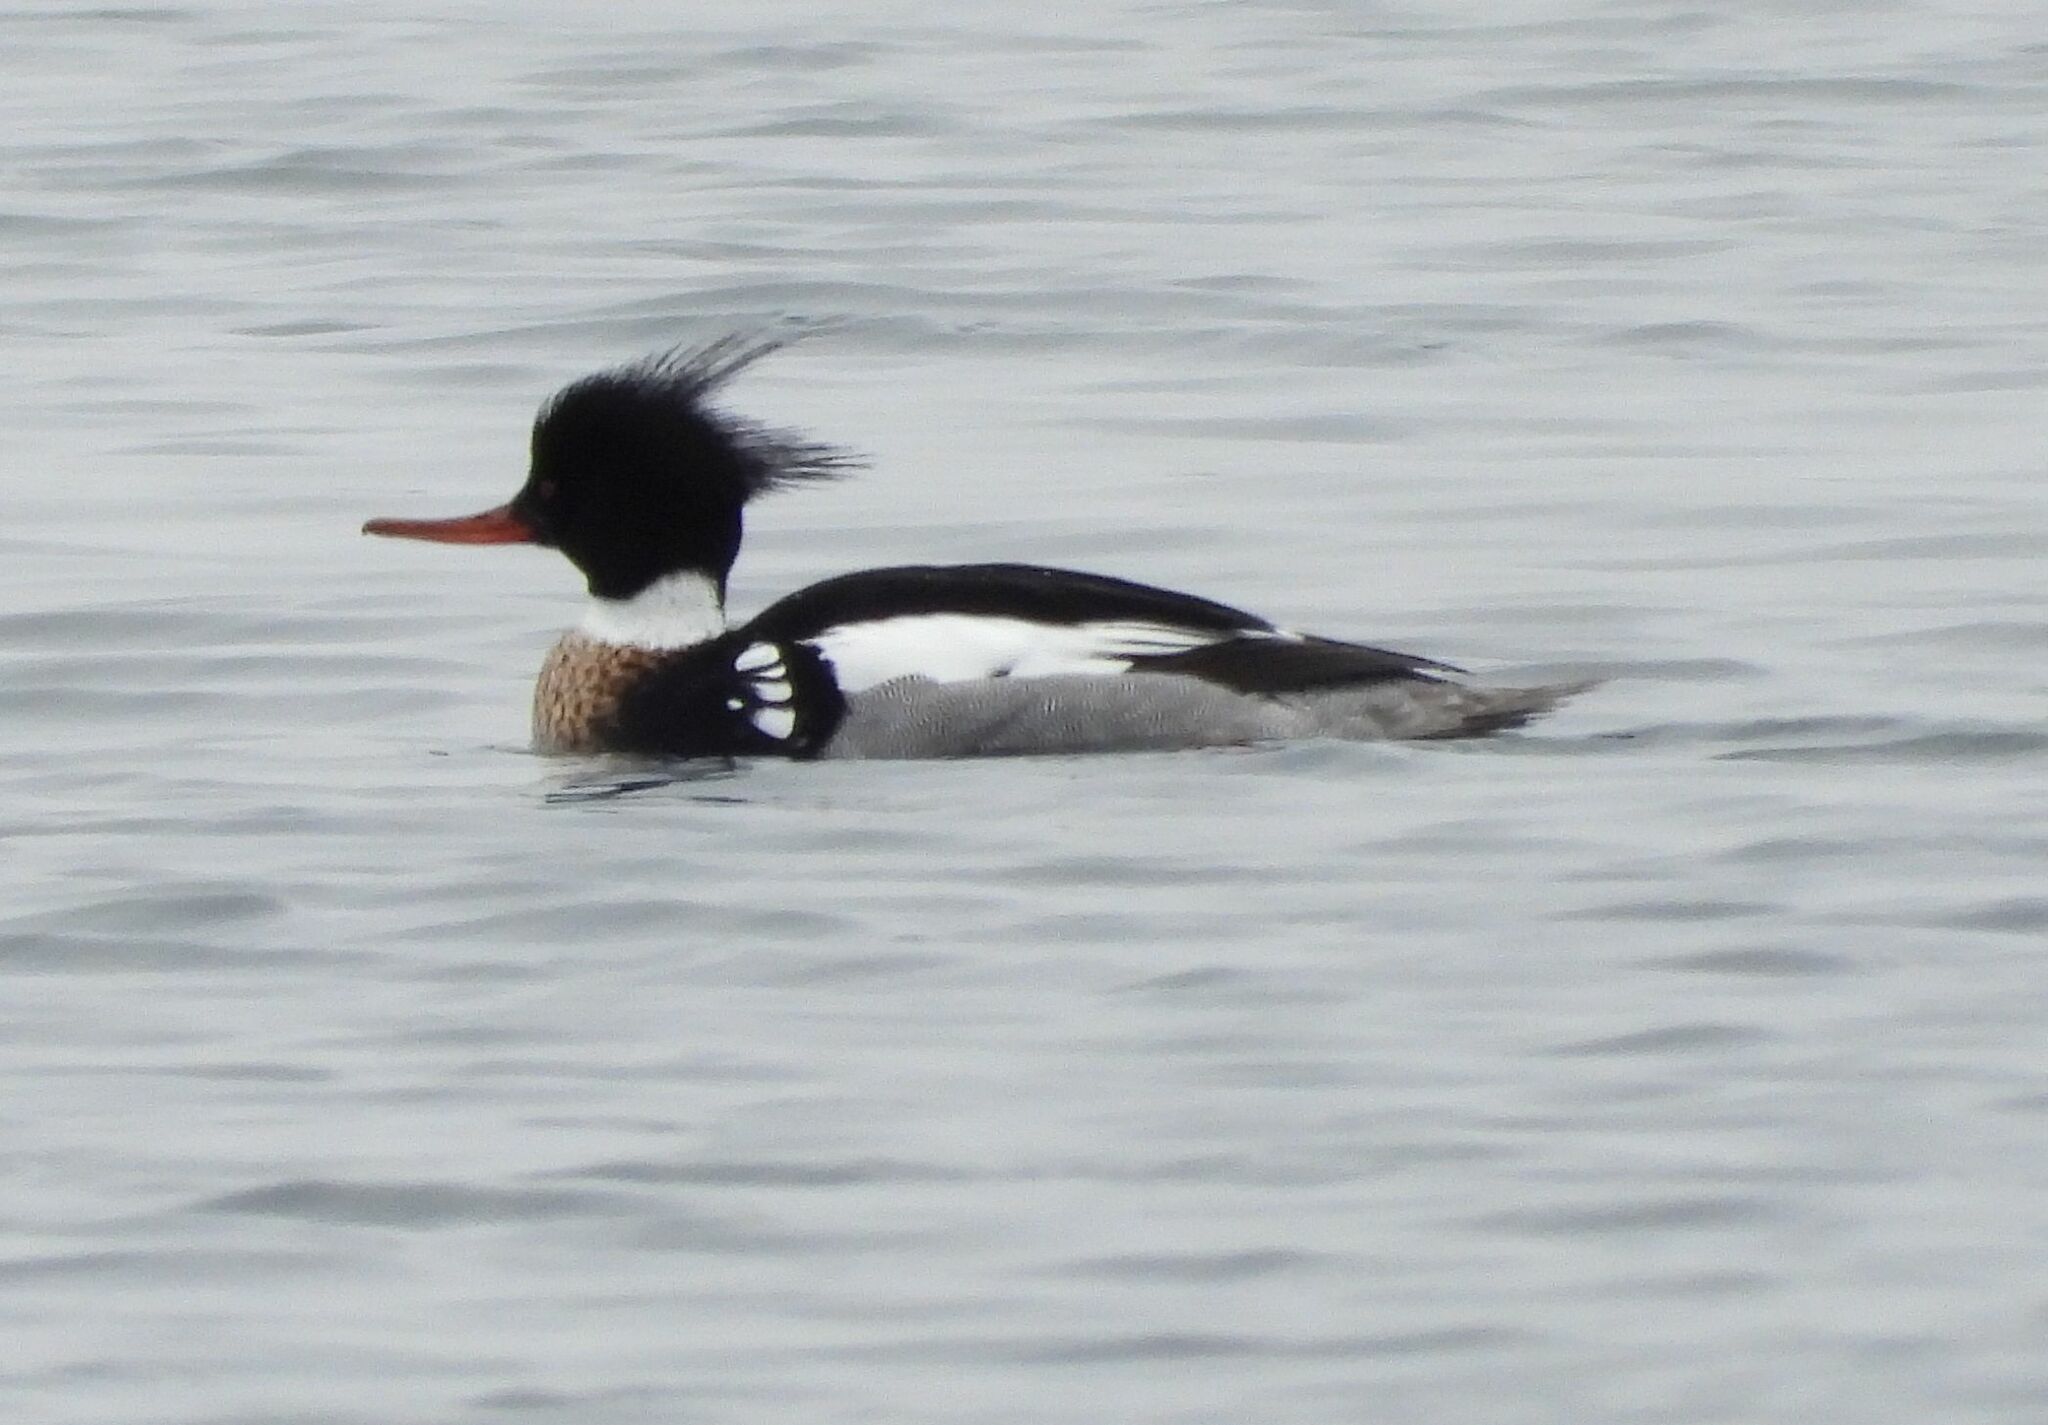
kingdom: Animalia
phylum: Chordata
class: Aves
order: Anseriformes
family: Anatidae
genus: Mergus
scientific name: Mergus serrator
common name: Red-breasted merganser
